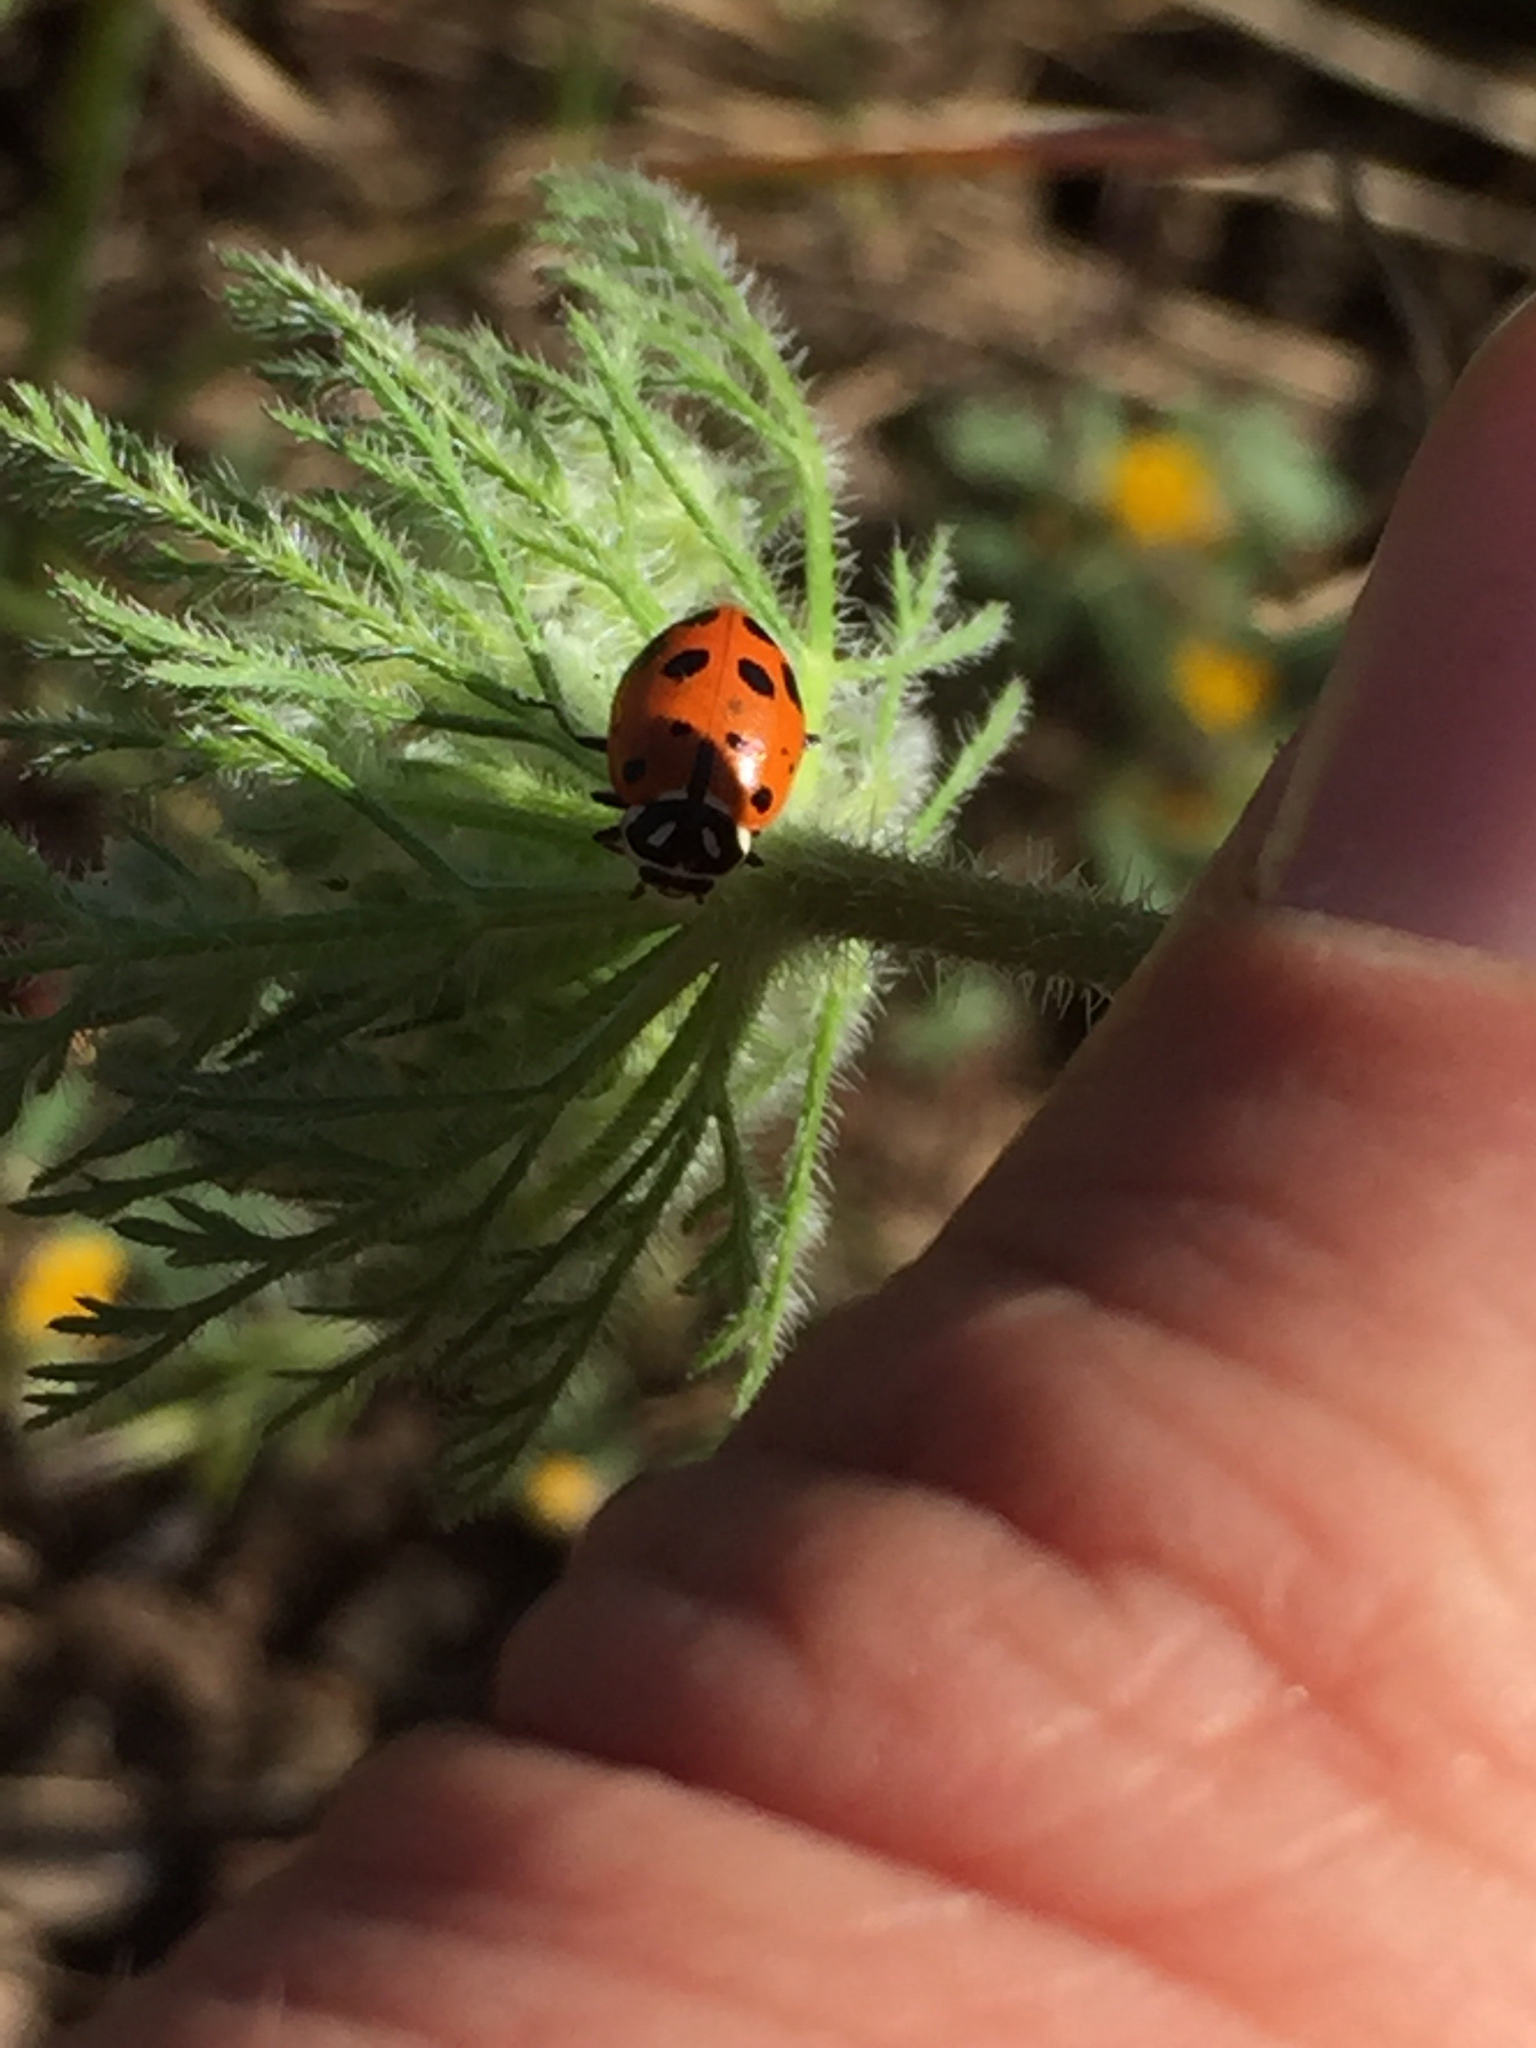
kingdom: Animalia
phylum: Arthropoda
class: Insecta
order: Coleoptera
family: Coccinellidae
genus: Hippodamia
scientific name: Hippodamia convergens
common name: Convergent lady beetle
